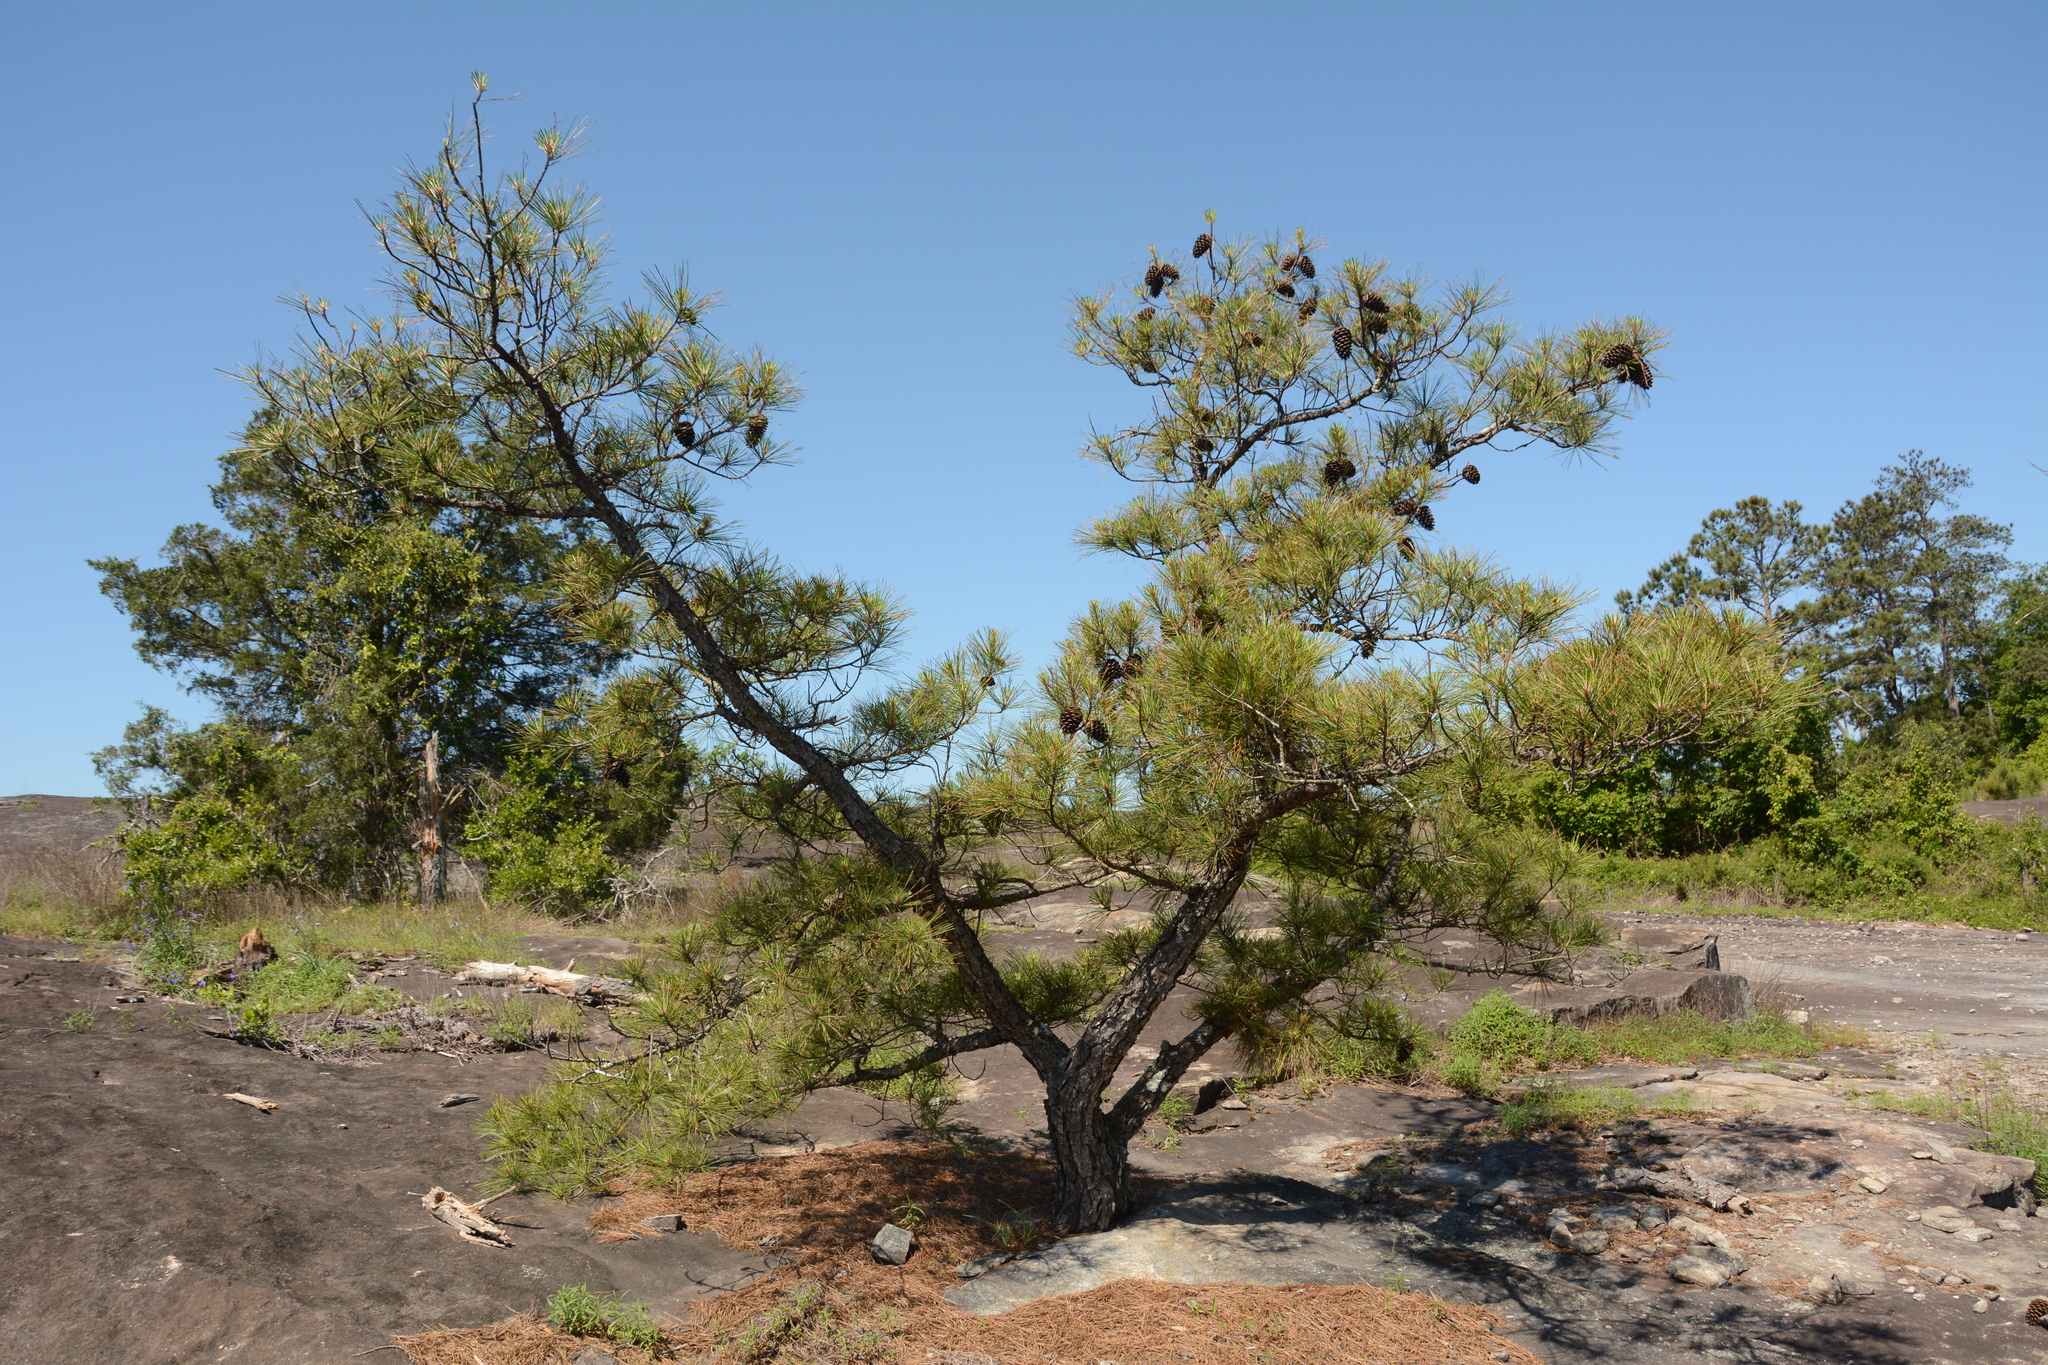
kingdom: Plantae
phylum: Tracheophyta
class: Pinopsida
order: Pinales
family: Pinaceae
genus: Pinus
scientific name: Pinus taeda
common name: Loblolly pine
